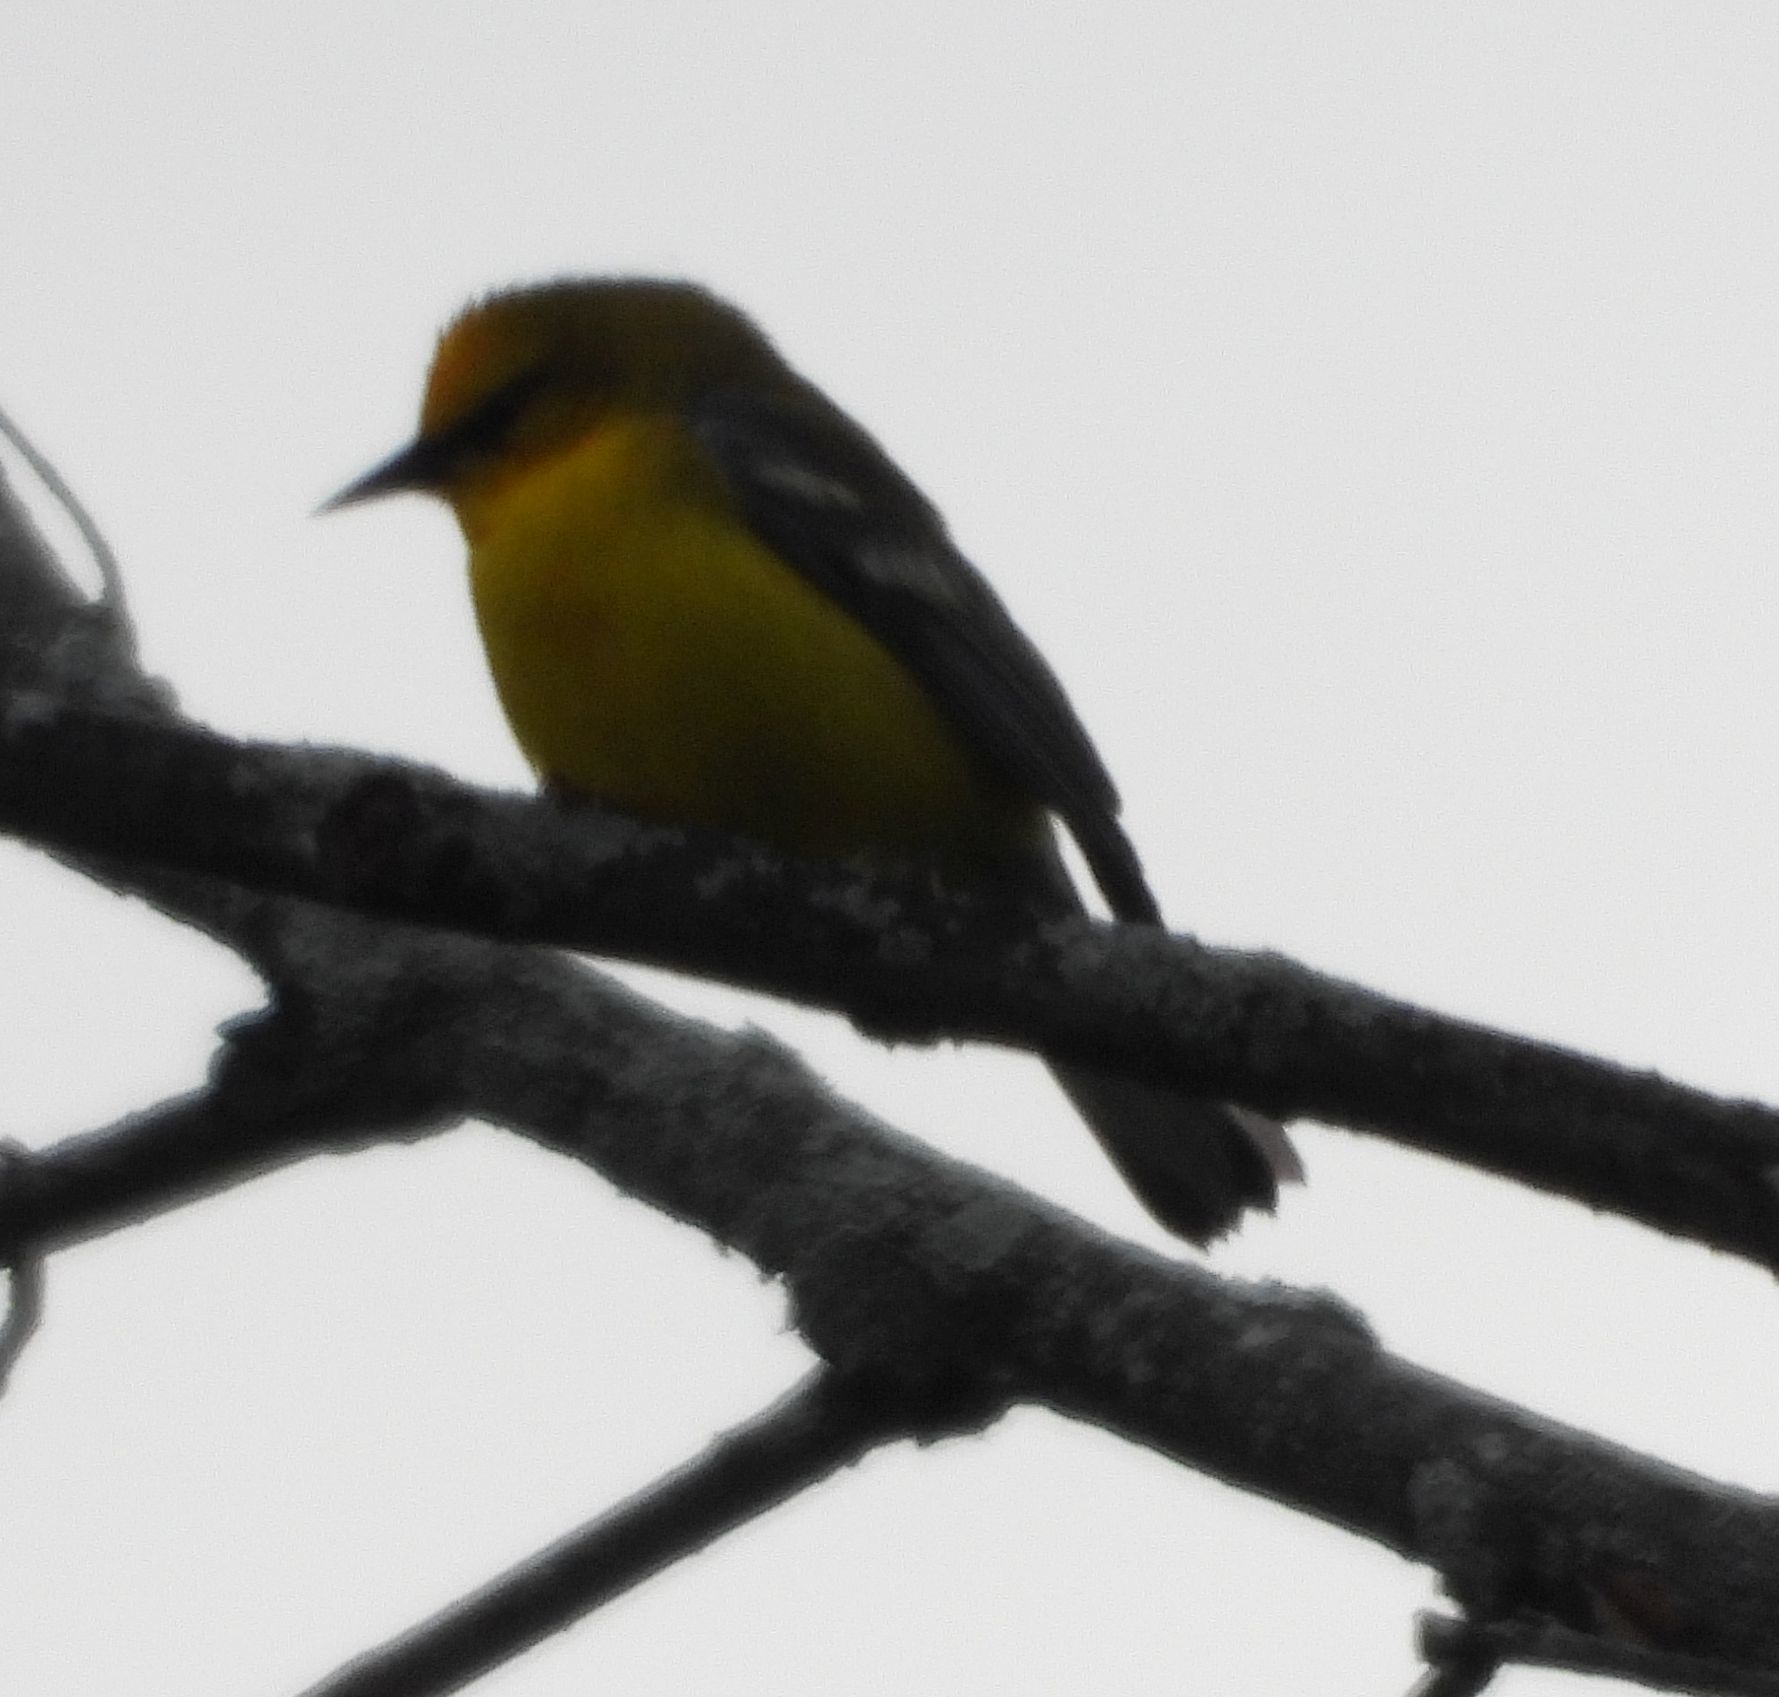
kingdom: Animalia
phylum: Chordata
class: Aves
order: Passeriformes
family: Parulidae
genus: Vermivora
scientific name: Vermivora cyanoptera
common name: Blue-winged warbler
